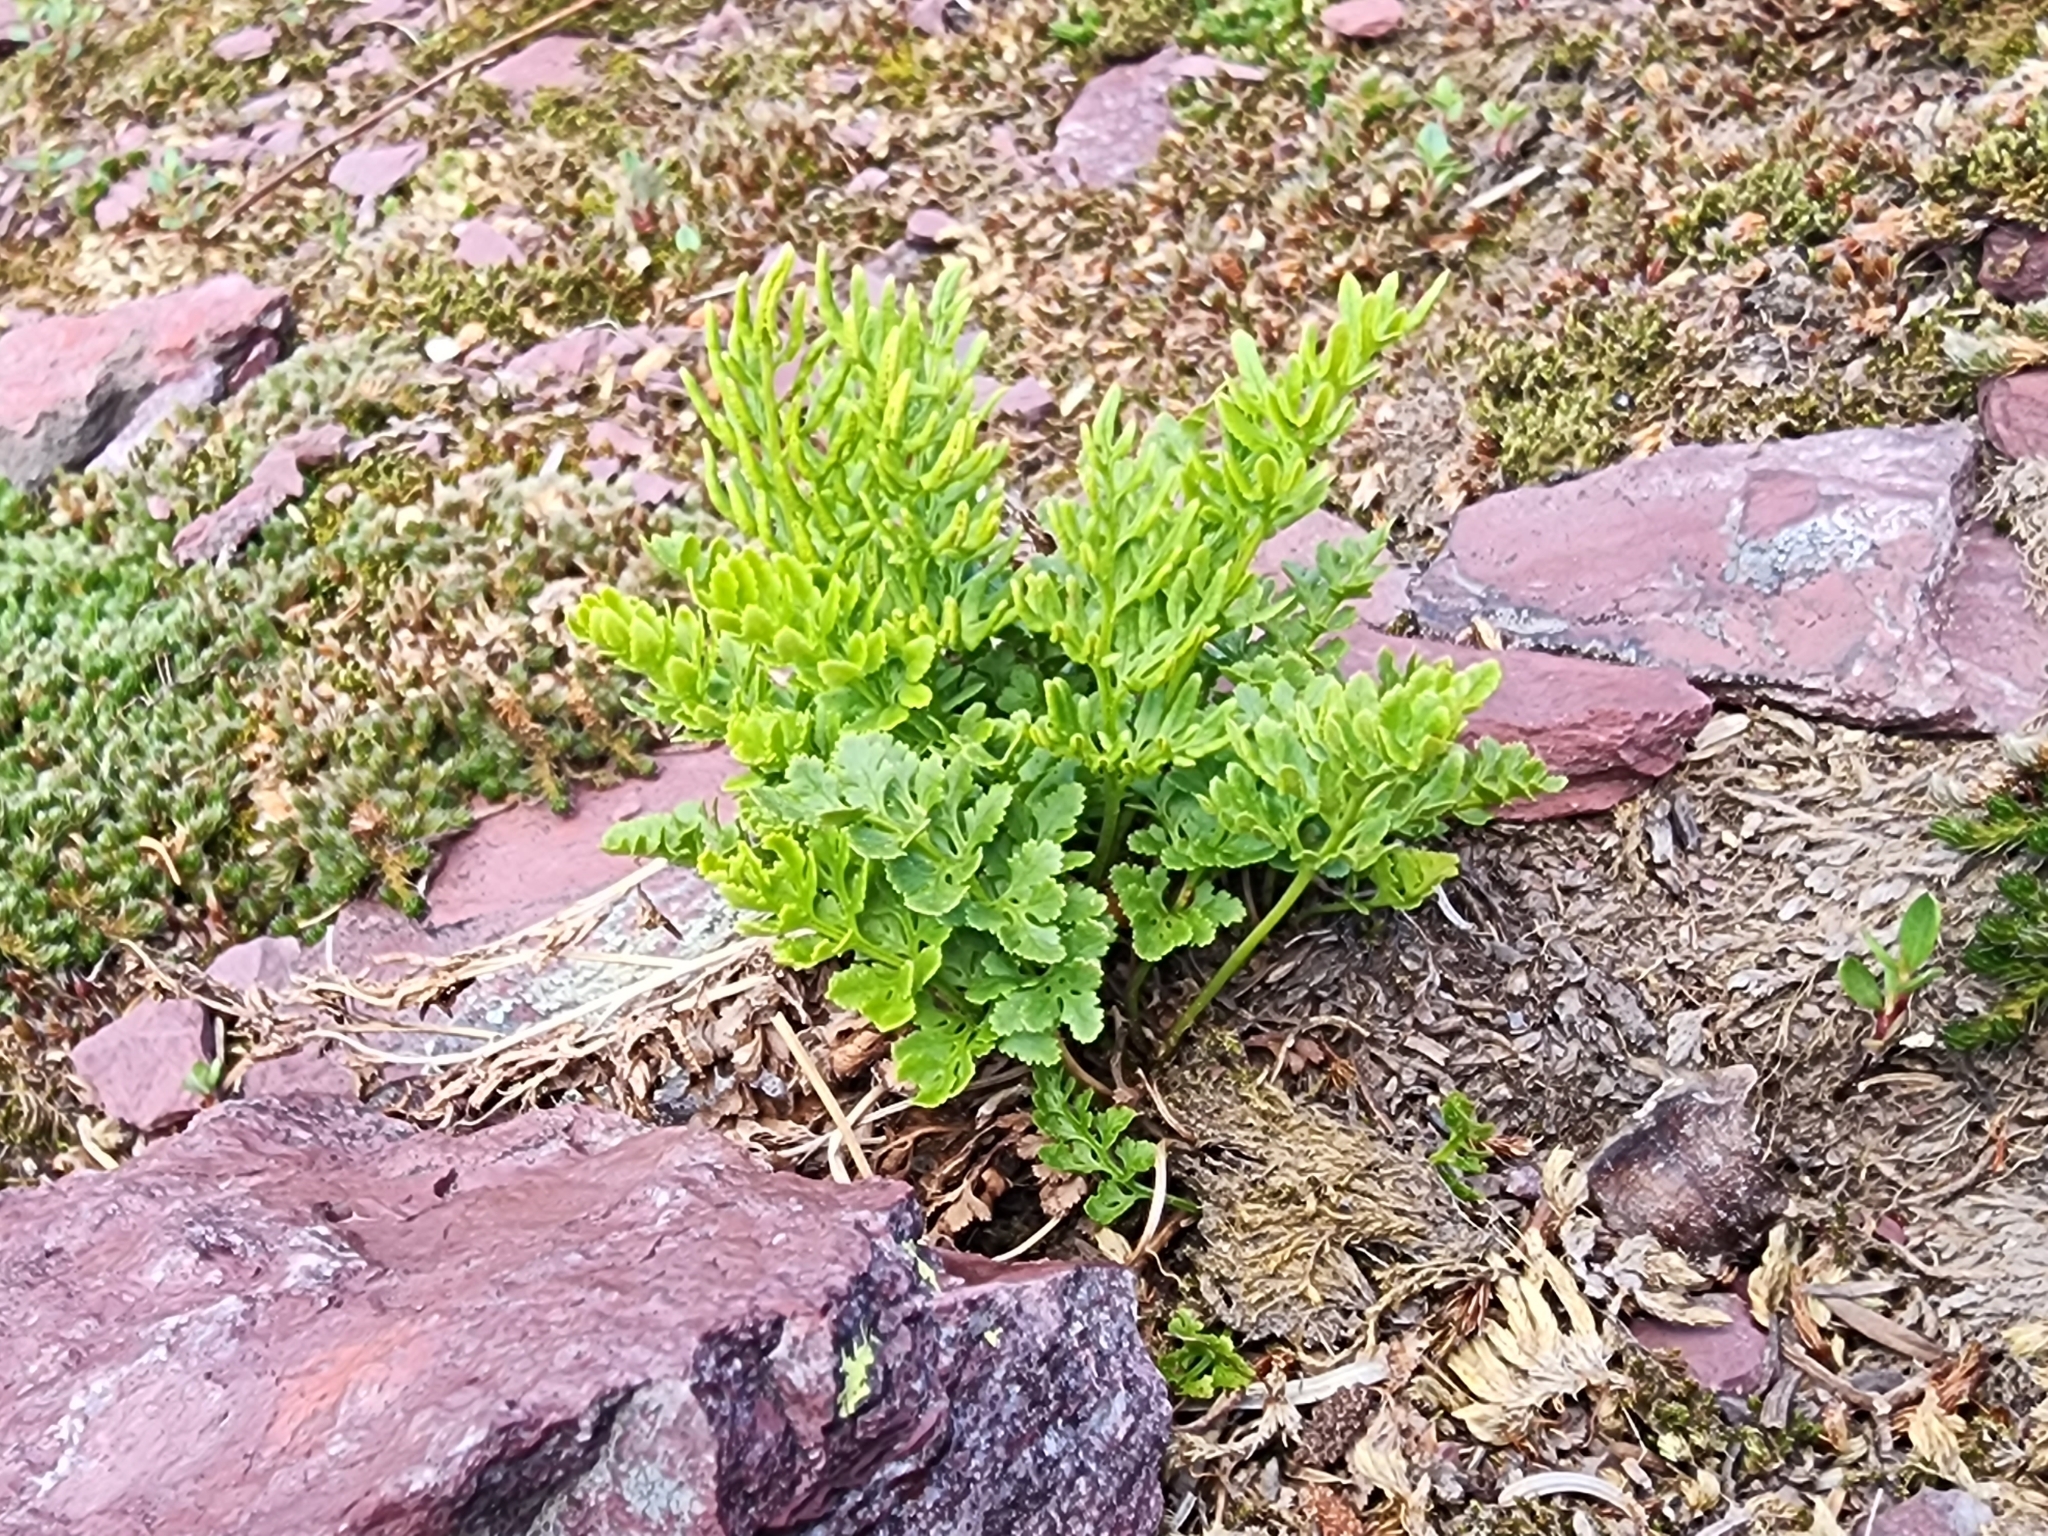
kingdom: Plantae
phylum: Tracheophyta
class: Polypodiopsida
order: Polypodiales
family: Pteridaceae
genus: Cryptogramma
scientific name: Cryptogramma acrostichoides
